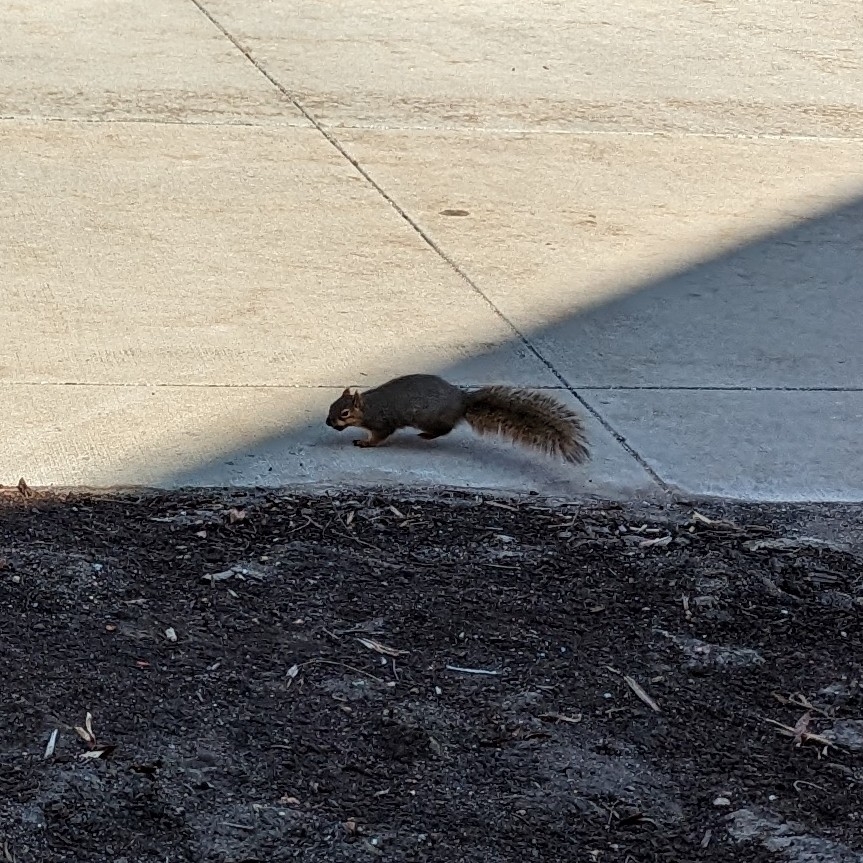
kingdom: Animalia
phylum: Chordata
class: Mammalia
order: Rodentia
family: Sciuridae
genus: Sciurus
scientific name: Sciurus niger
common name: Fox squirrel
